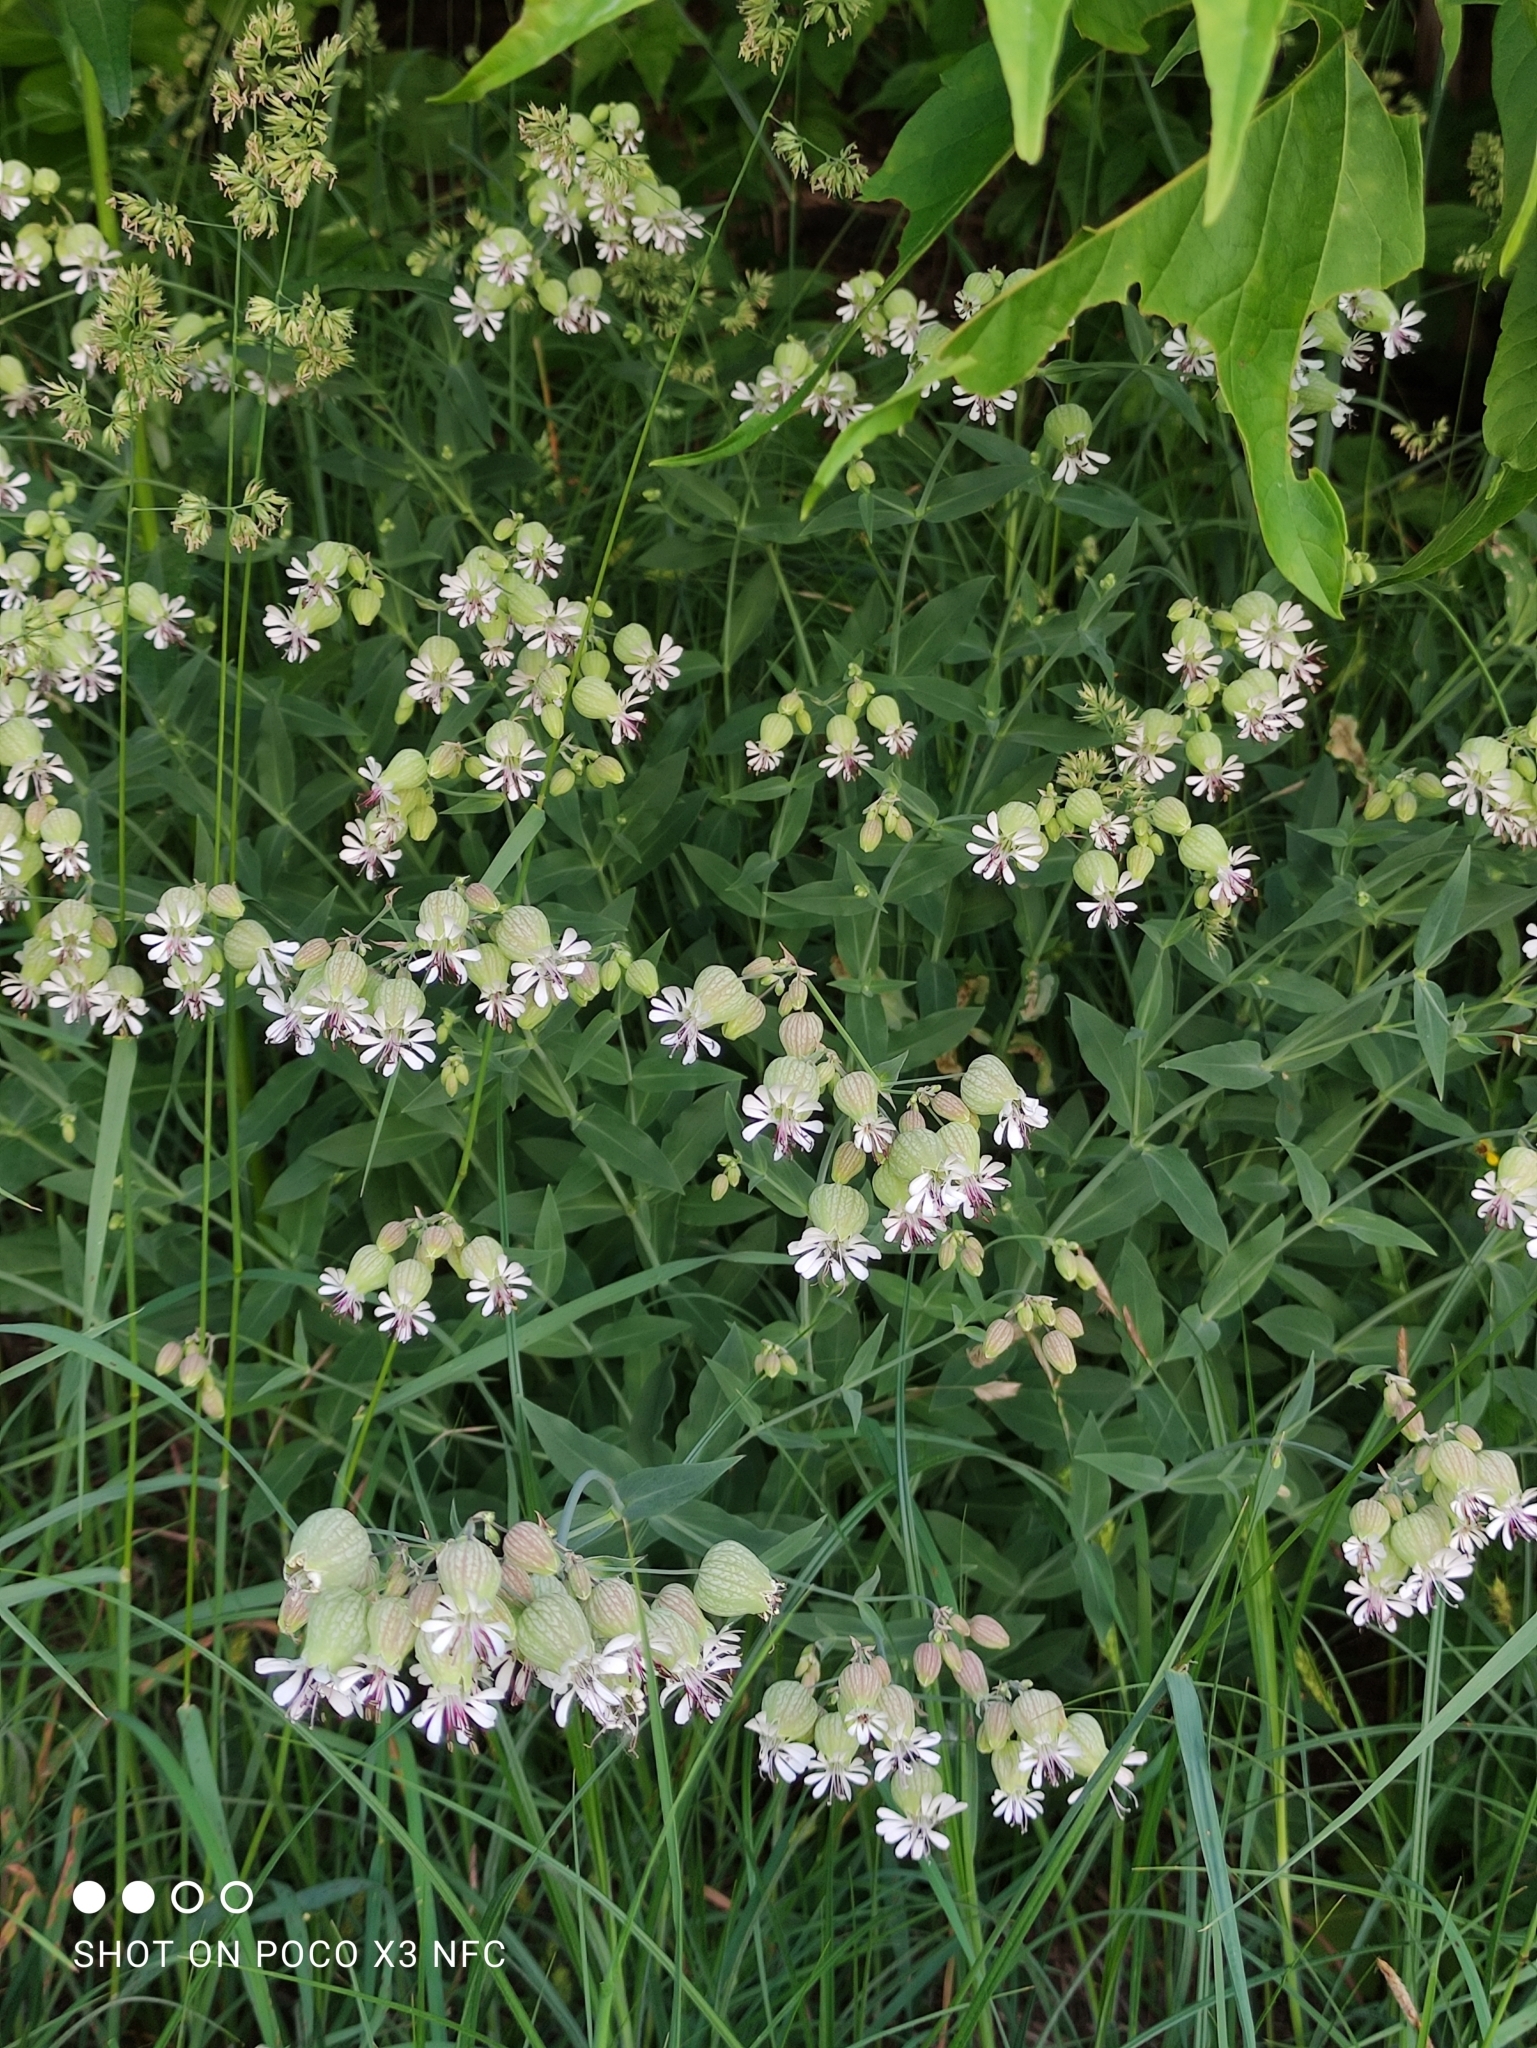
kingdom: Plantae
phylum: Tracheophyta
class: Magnoliopsida
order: Caryophyllales
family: Caryophyllaceae
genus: Silene
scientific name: Silene vulgaris
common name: Bladder campion
